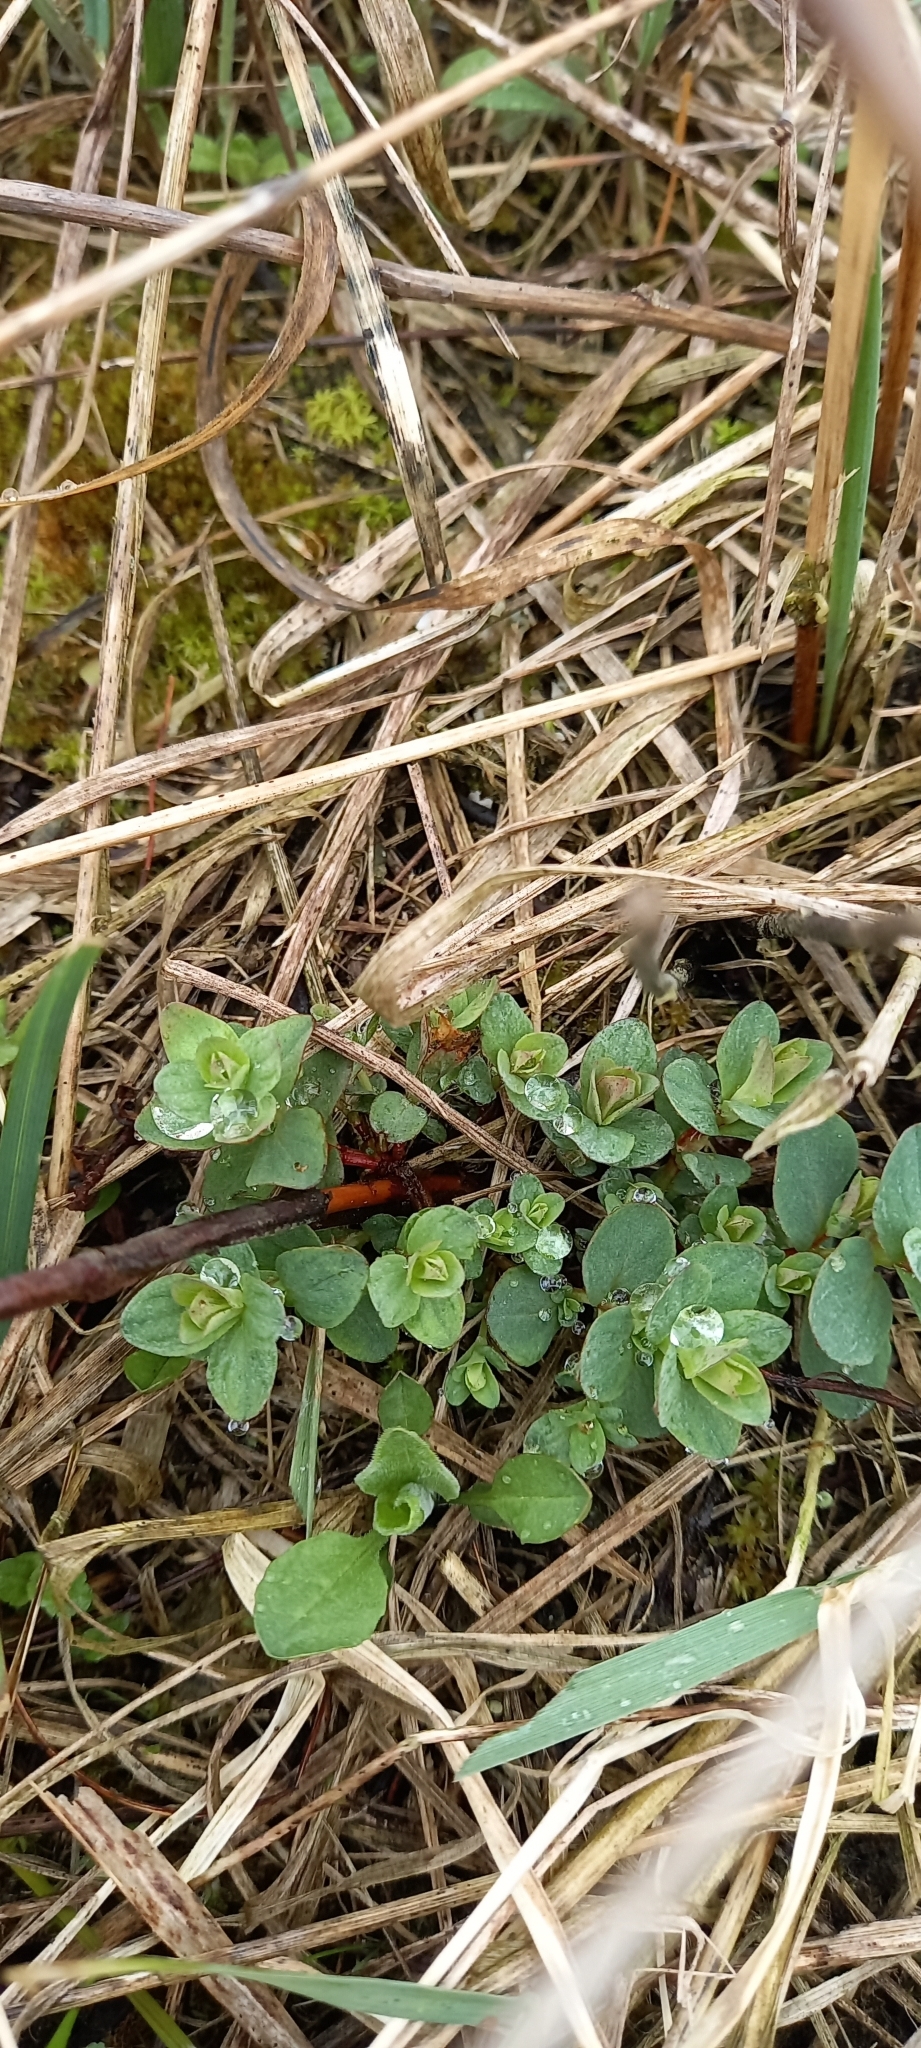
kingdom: Plantae
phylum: Tracheophyta
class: Magnoliopsida
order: Malpighiales
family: Hypericaceae
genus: Hypericum
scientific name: Hypericum perforatum
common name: Common st. johnswort
